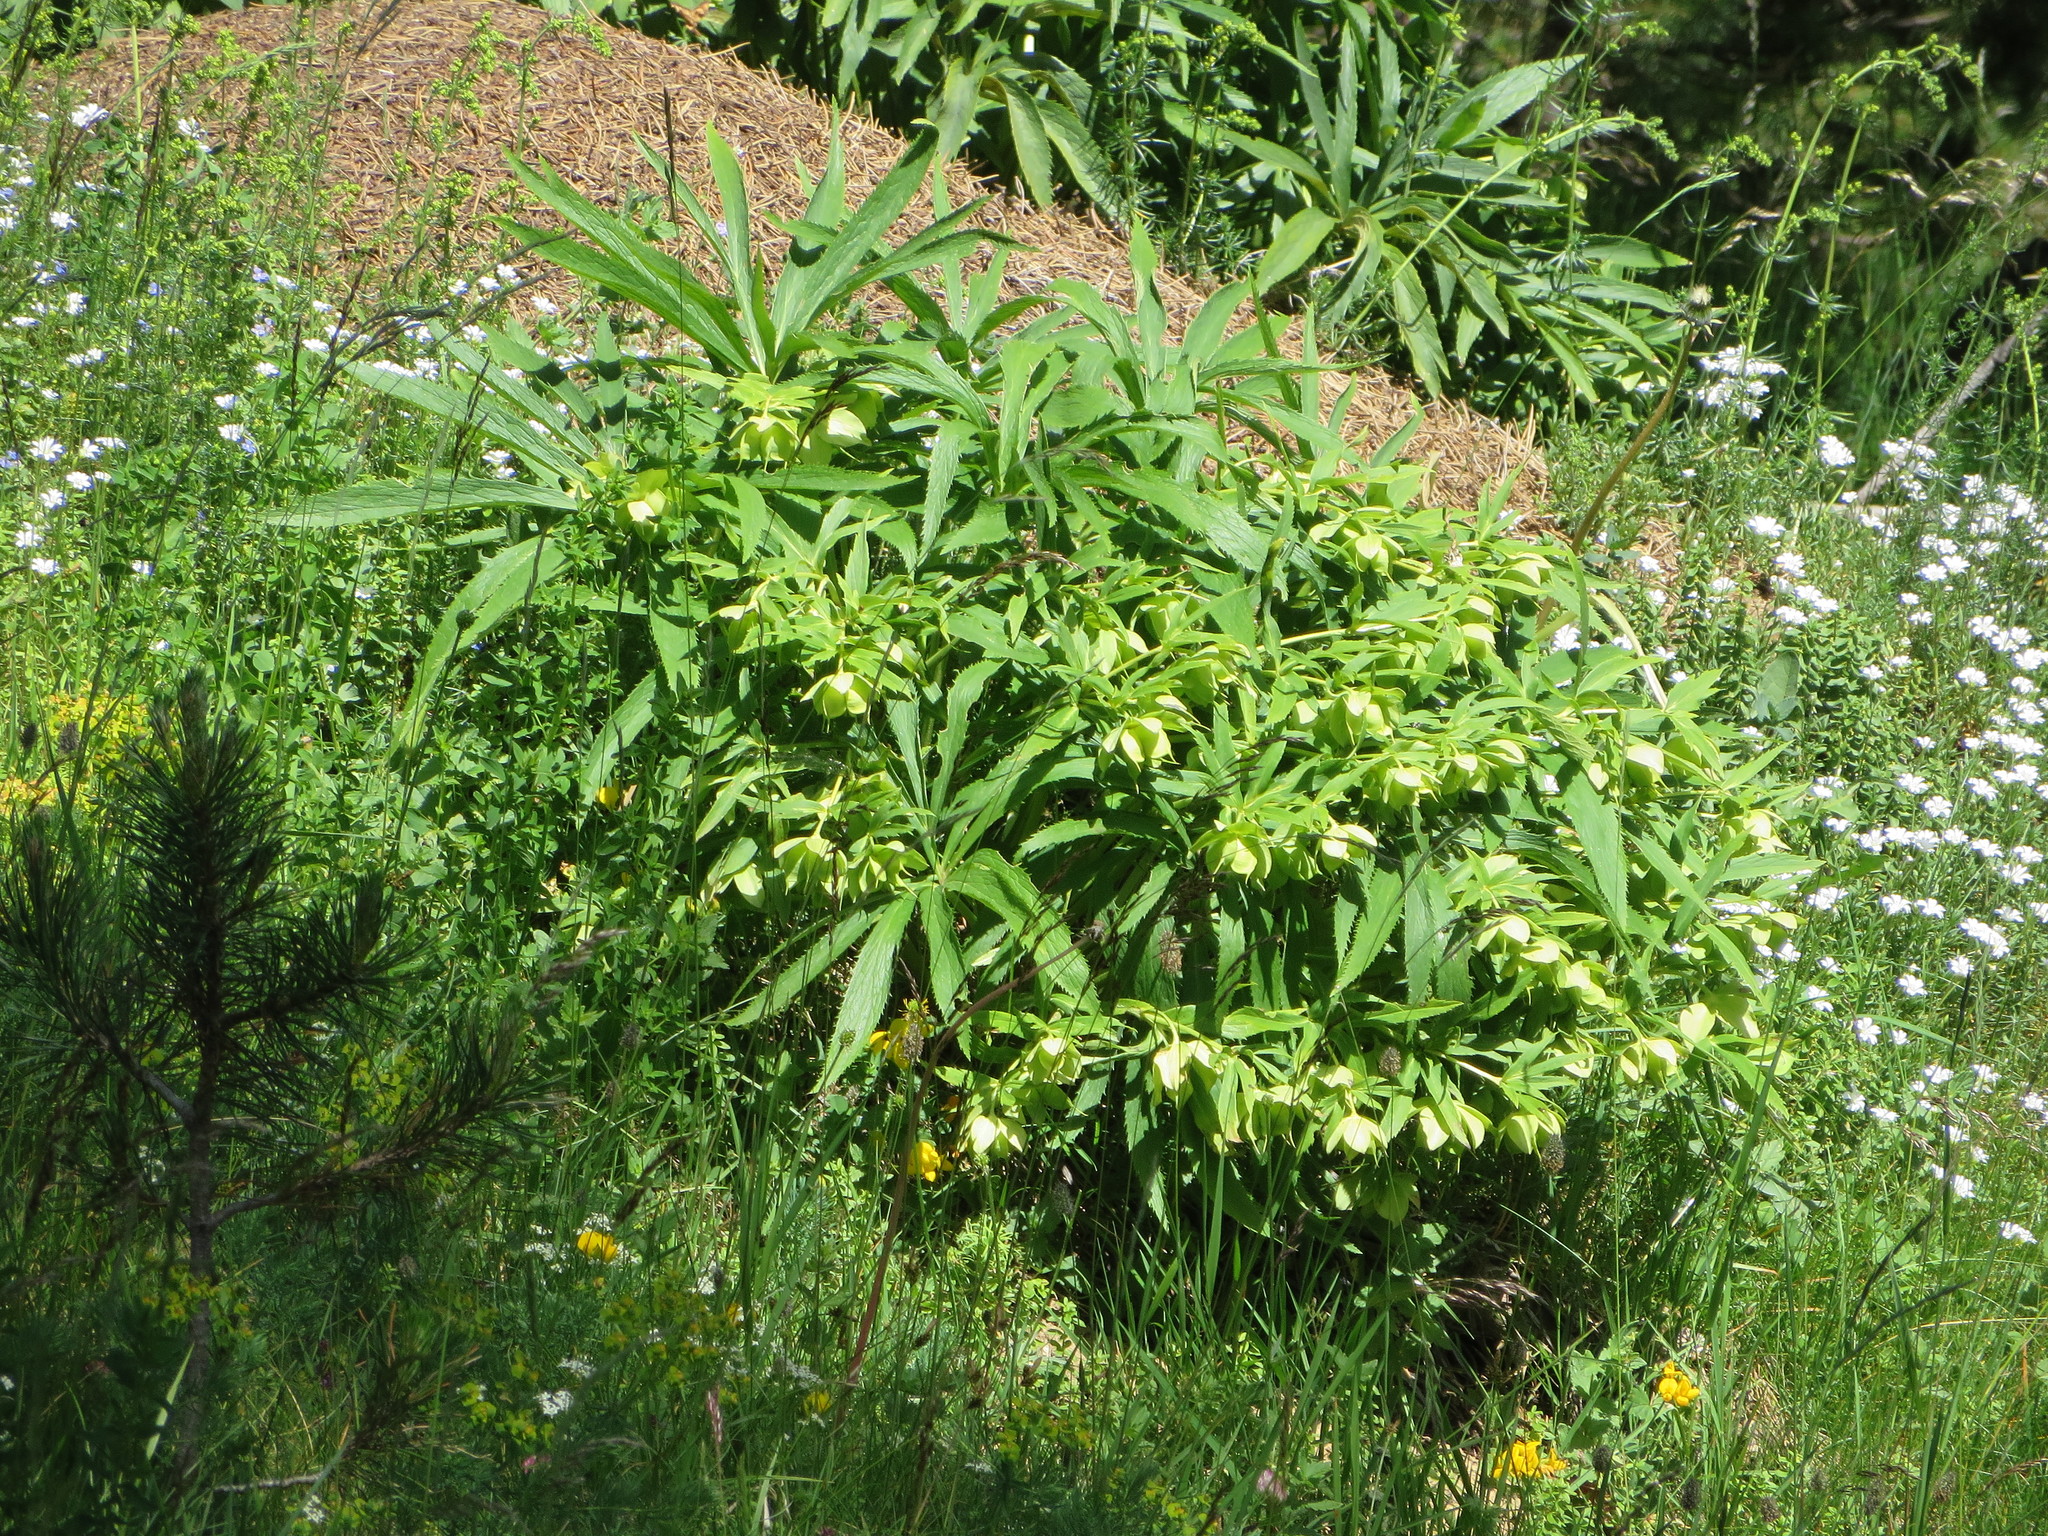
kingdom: Plantae
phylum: Tracheophyta
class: Magnoliopsida
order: Ranunculales
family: Ranunculaceae
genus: Helleborus
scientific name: Helleborus viridis
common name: Green hellebore
